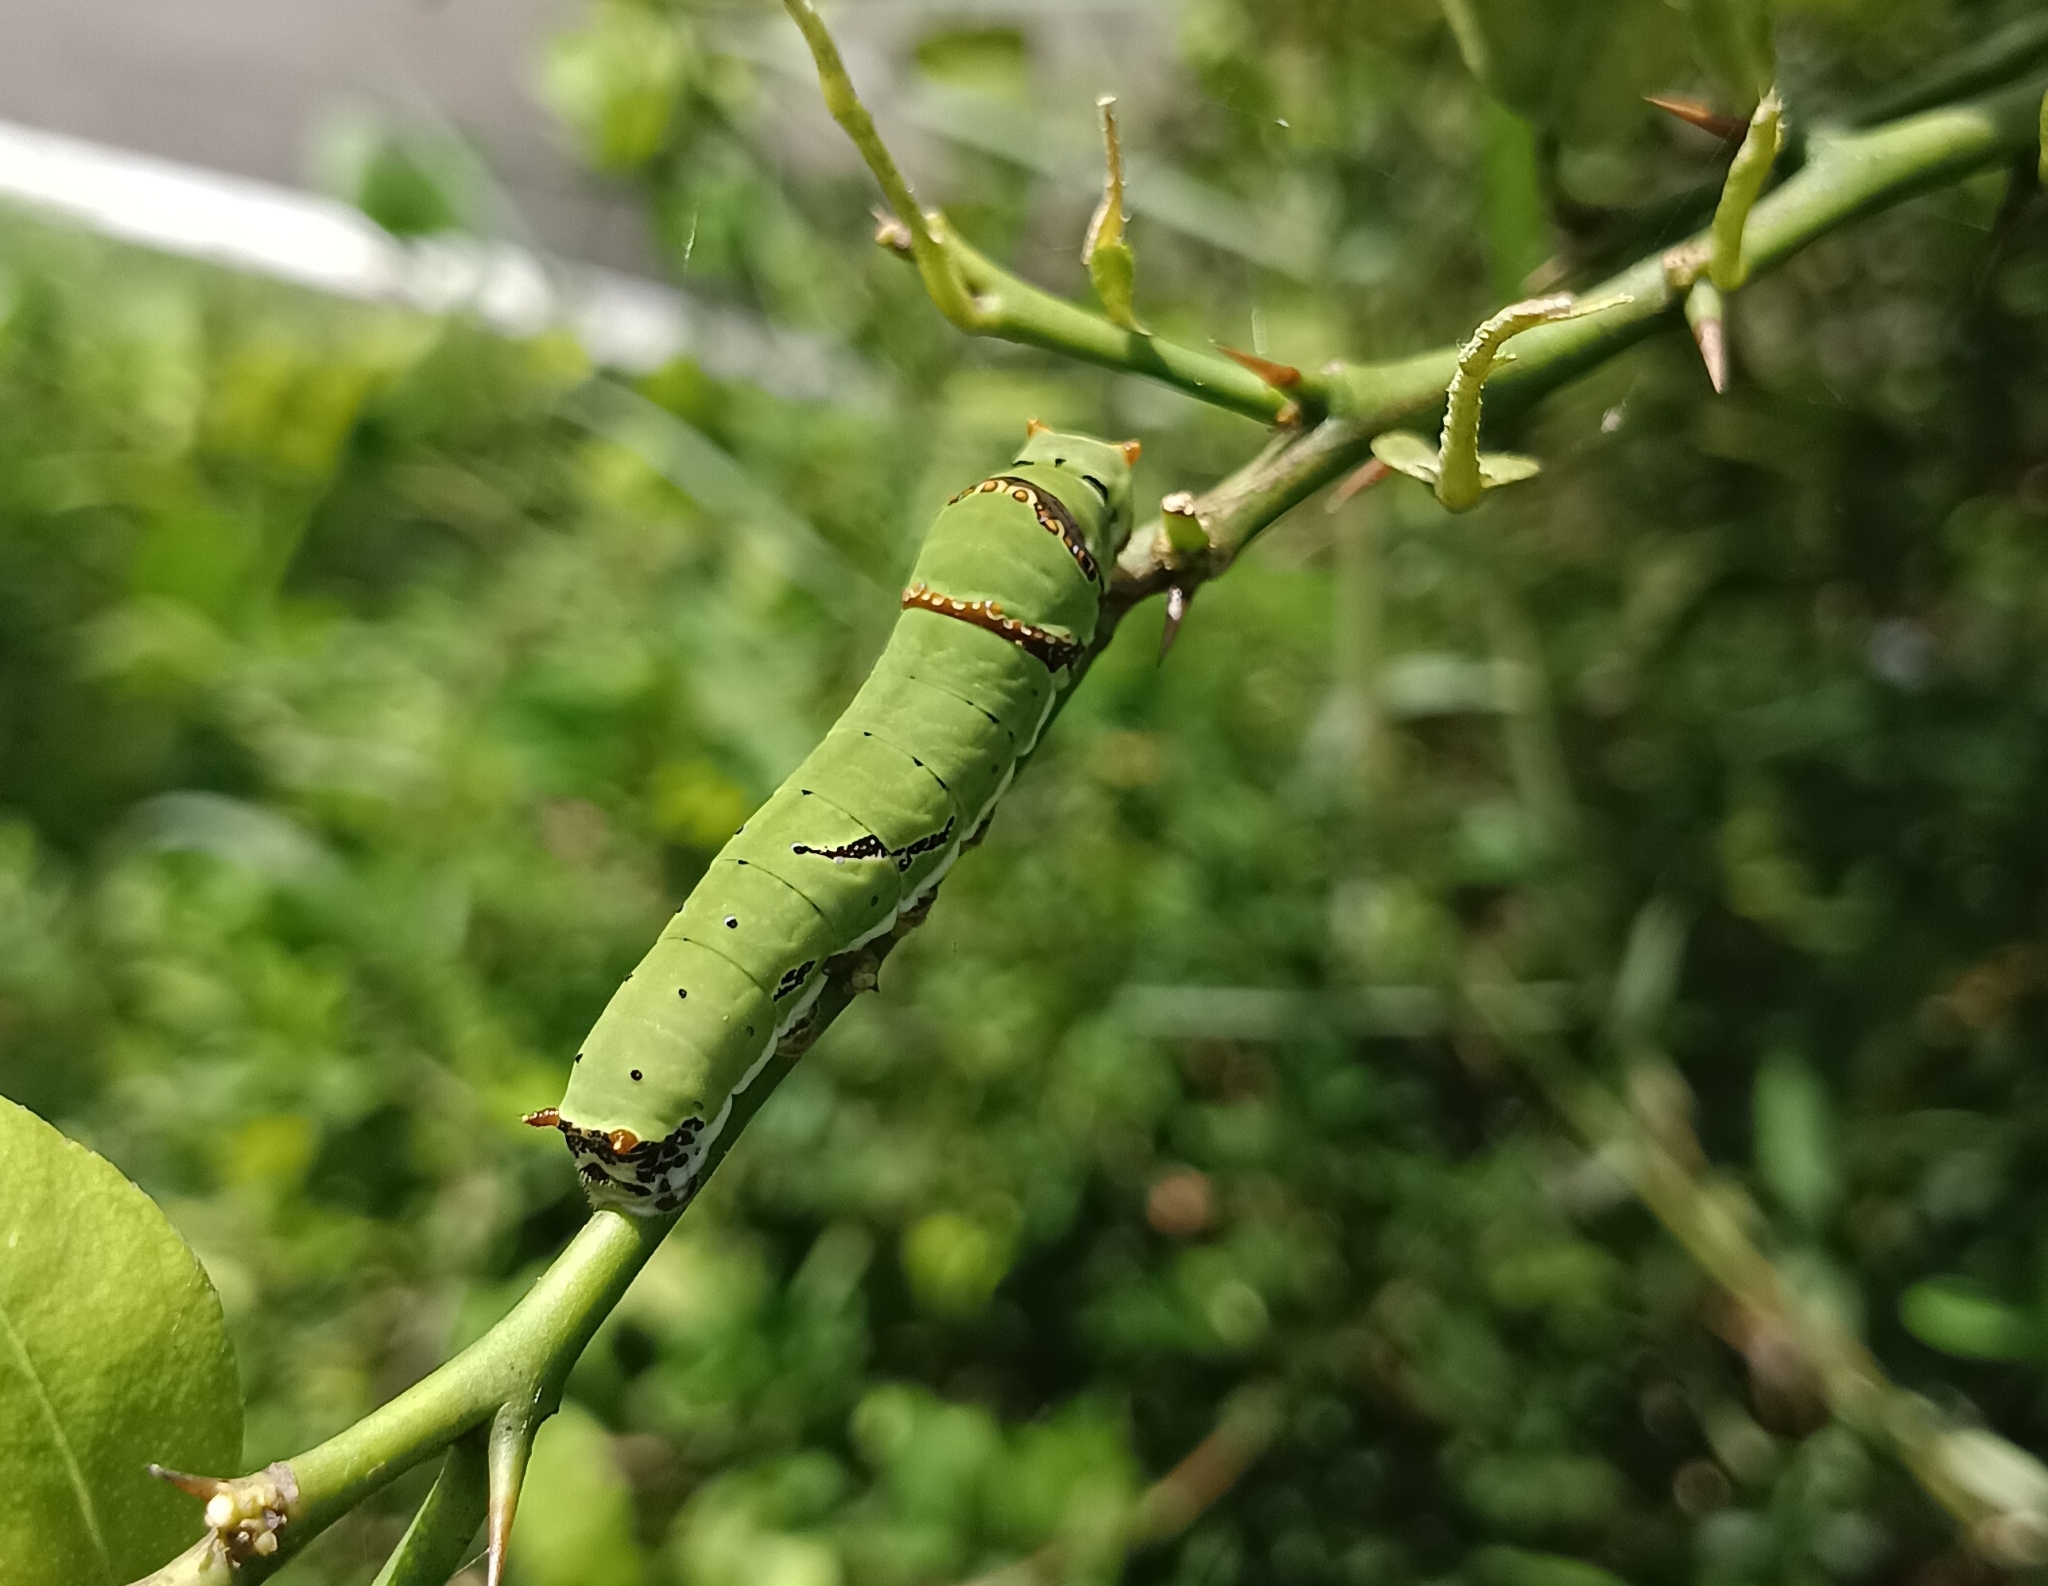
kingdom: Animalia
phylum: Arthropoda
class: Insecta
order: Lepidoptera
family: Papilionidae
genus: Papilio
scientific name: Papilio demoleus
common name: Lime butterfly
